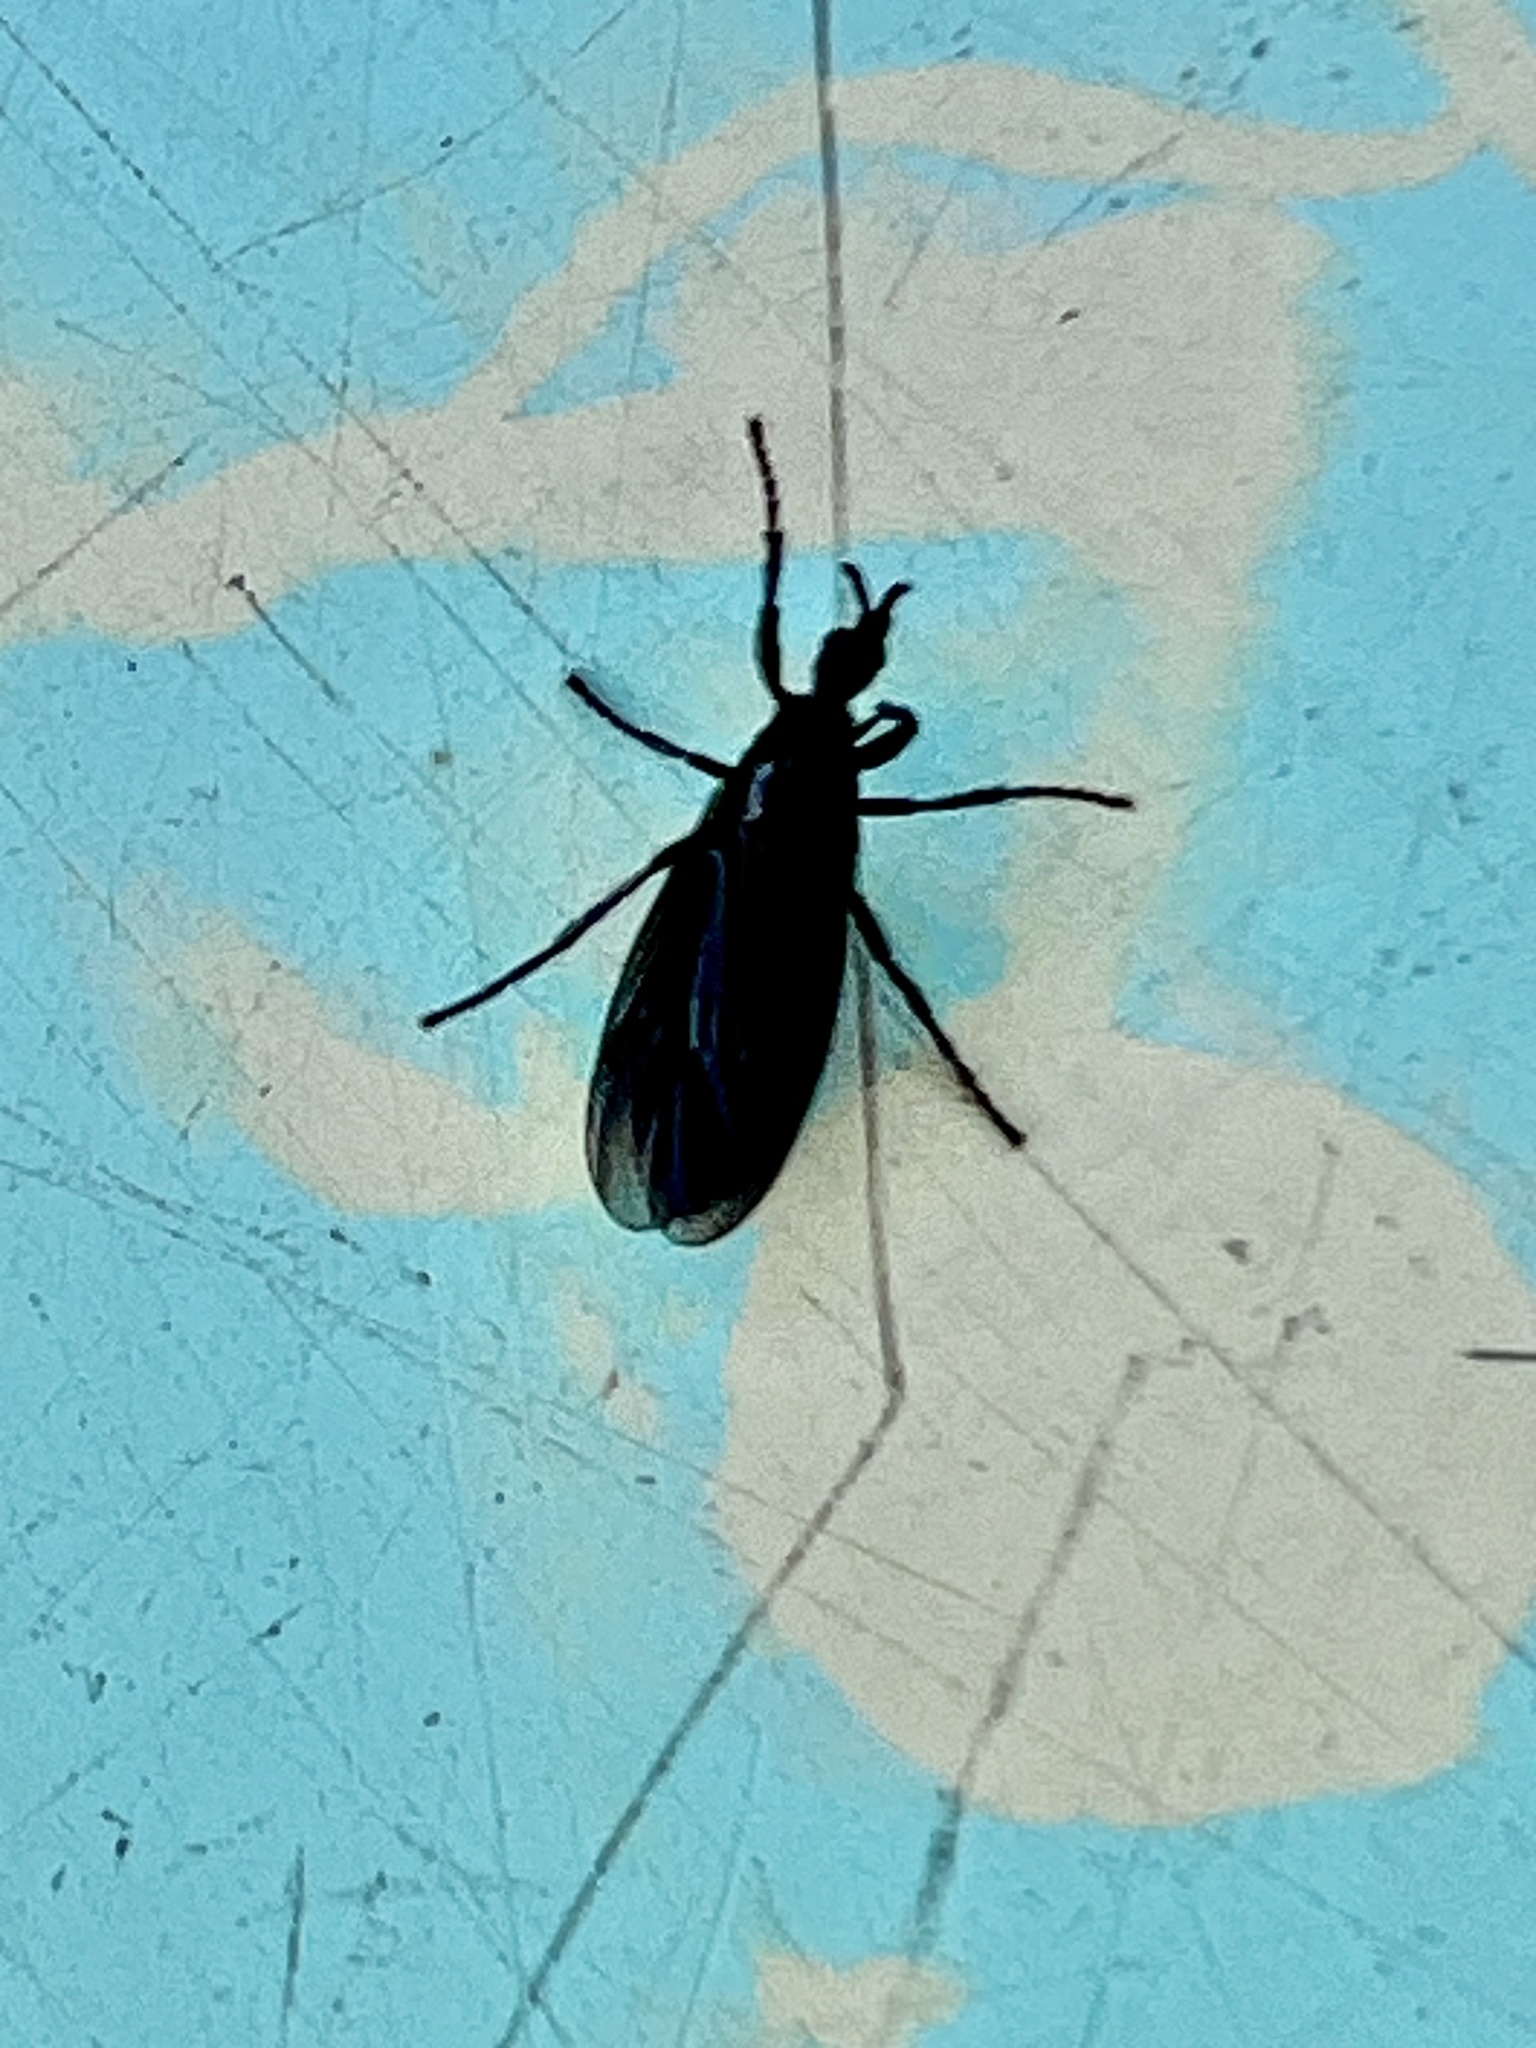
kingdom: Animalia
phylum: Arthropoda
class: Insecta
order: Diptera
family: Bibionidae
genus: Dilophus
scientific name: Dilophus orbatus
